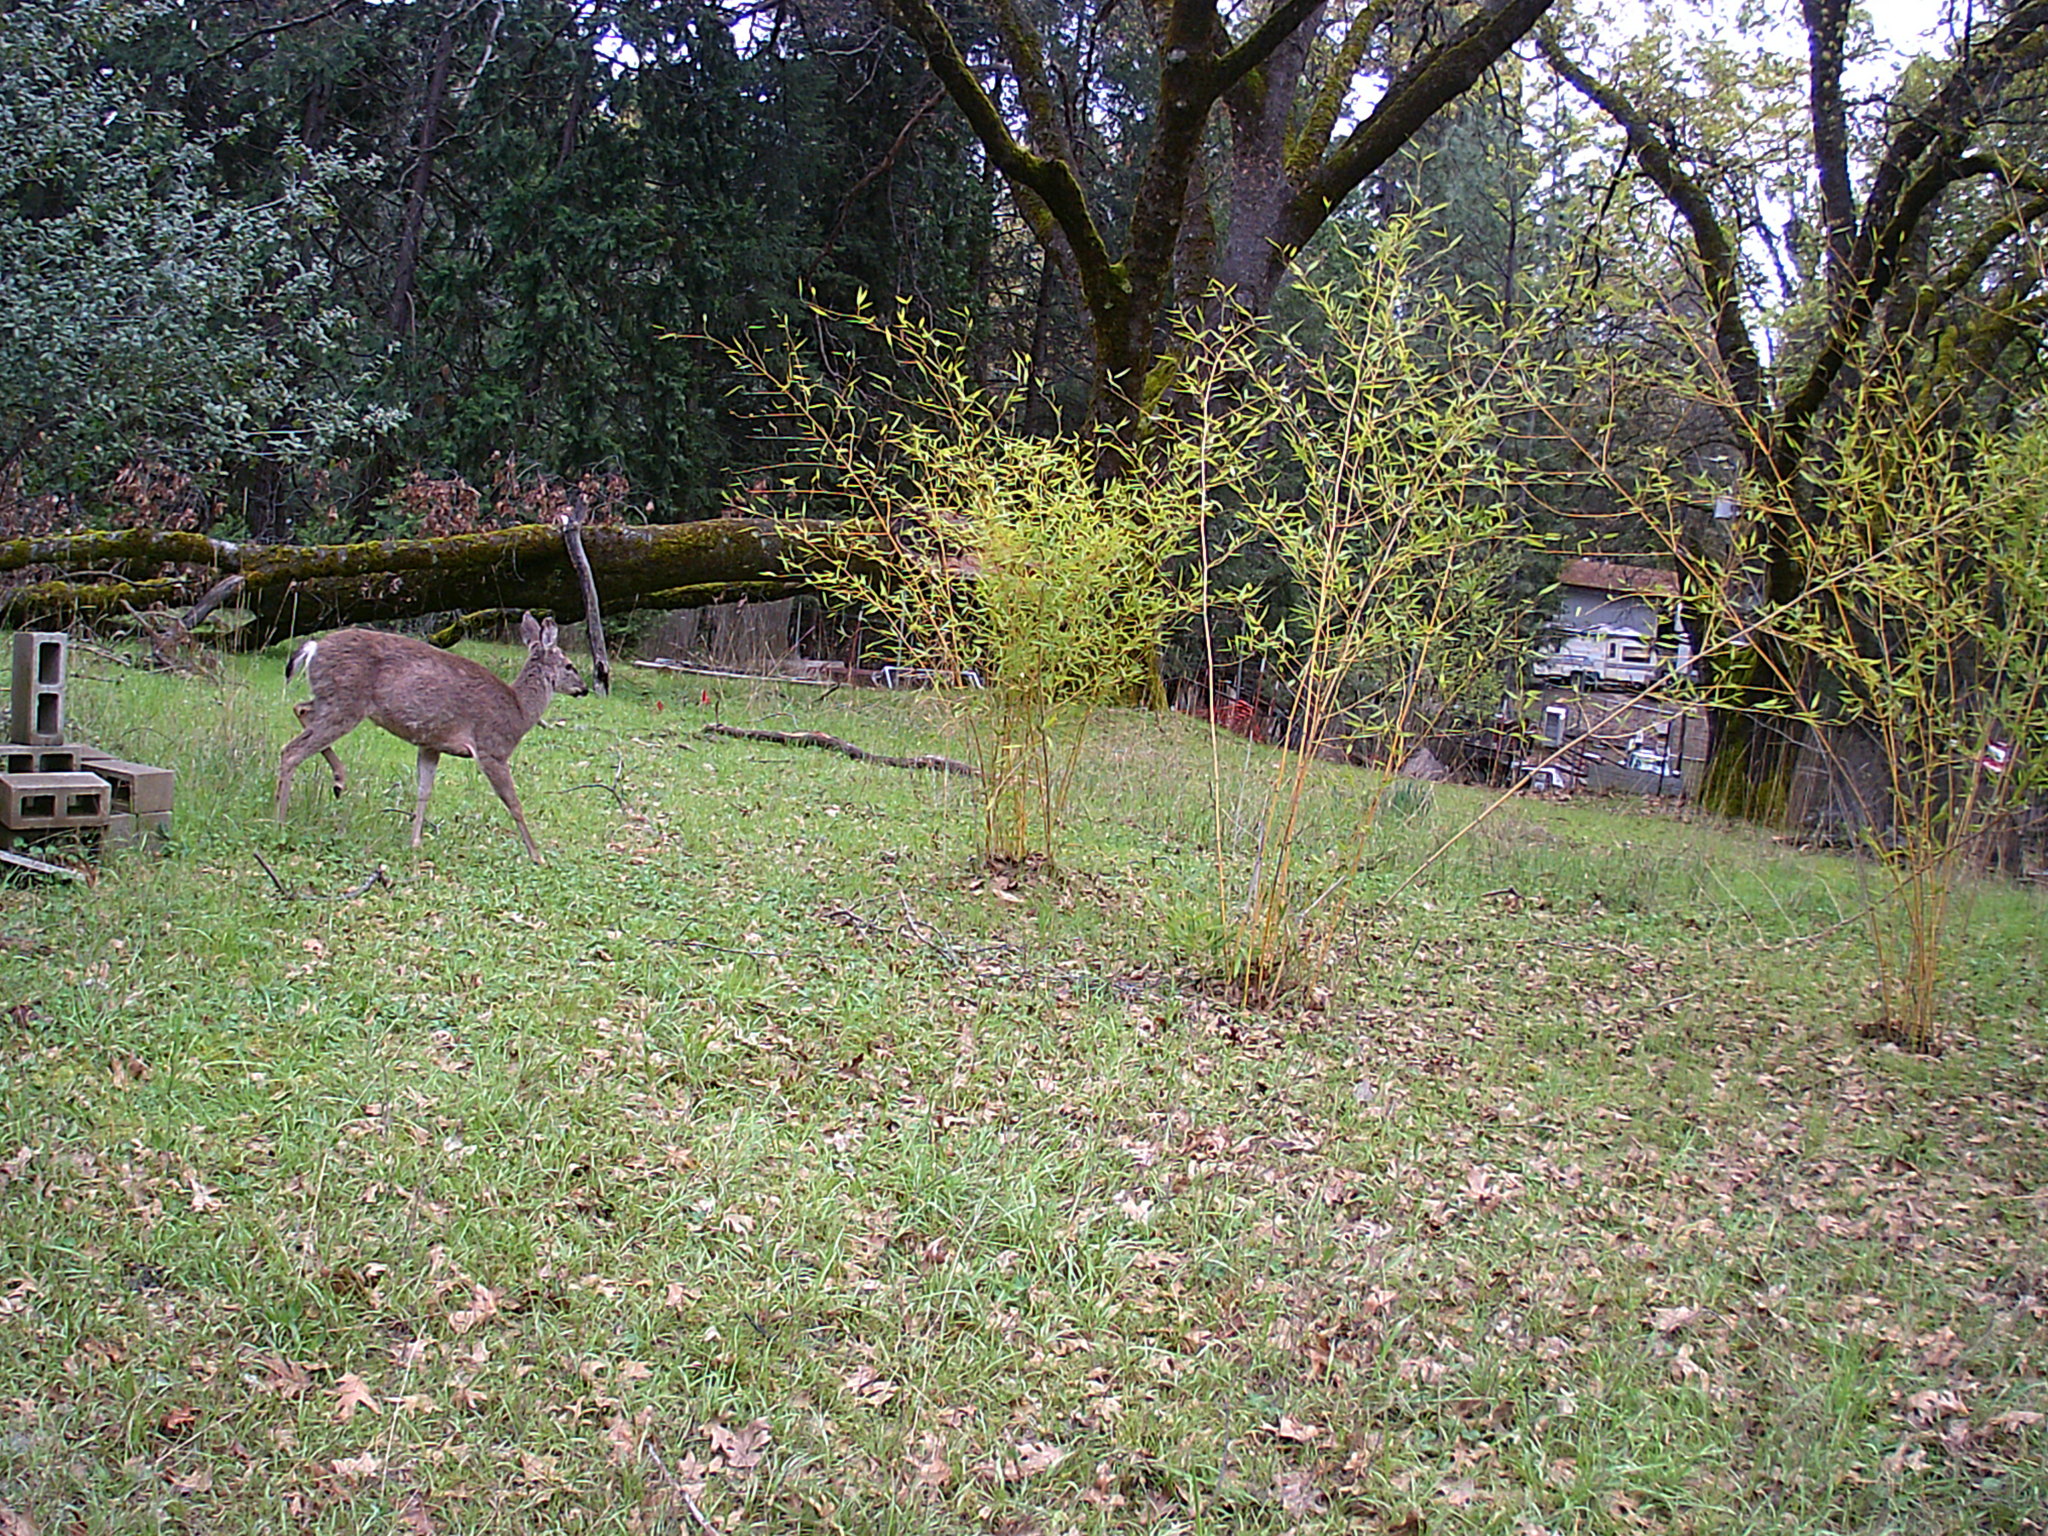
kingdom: Animalia
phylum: Chordata
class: Mammalia
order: Artiodactyla
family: Cervidae
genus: Odocoileus
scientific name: Odocoileus hemionus
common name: Mule deer
